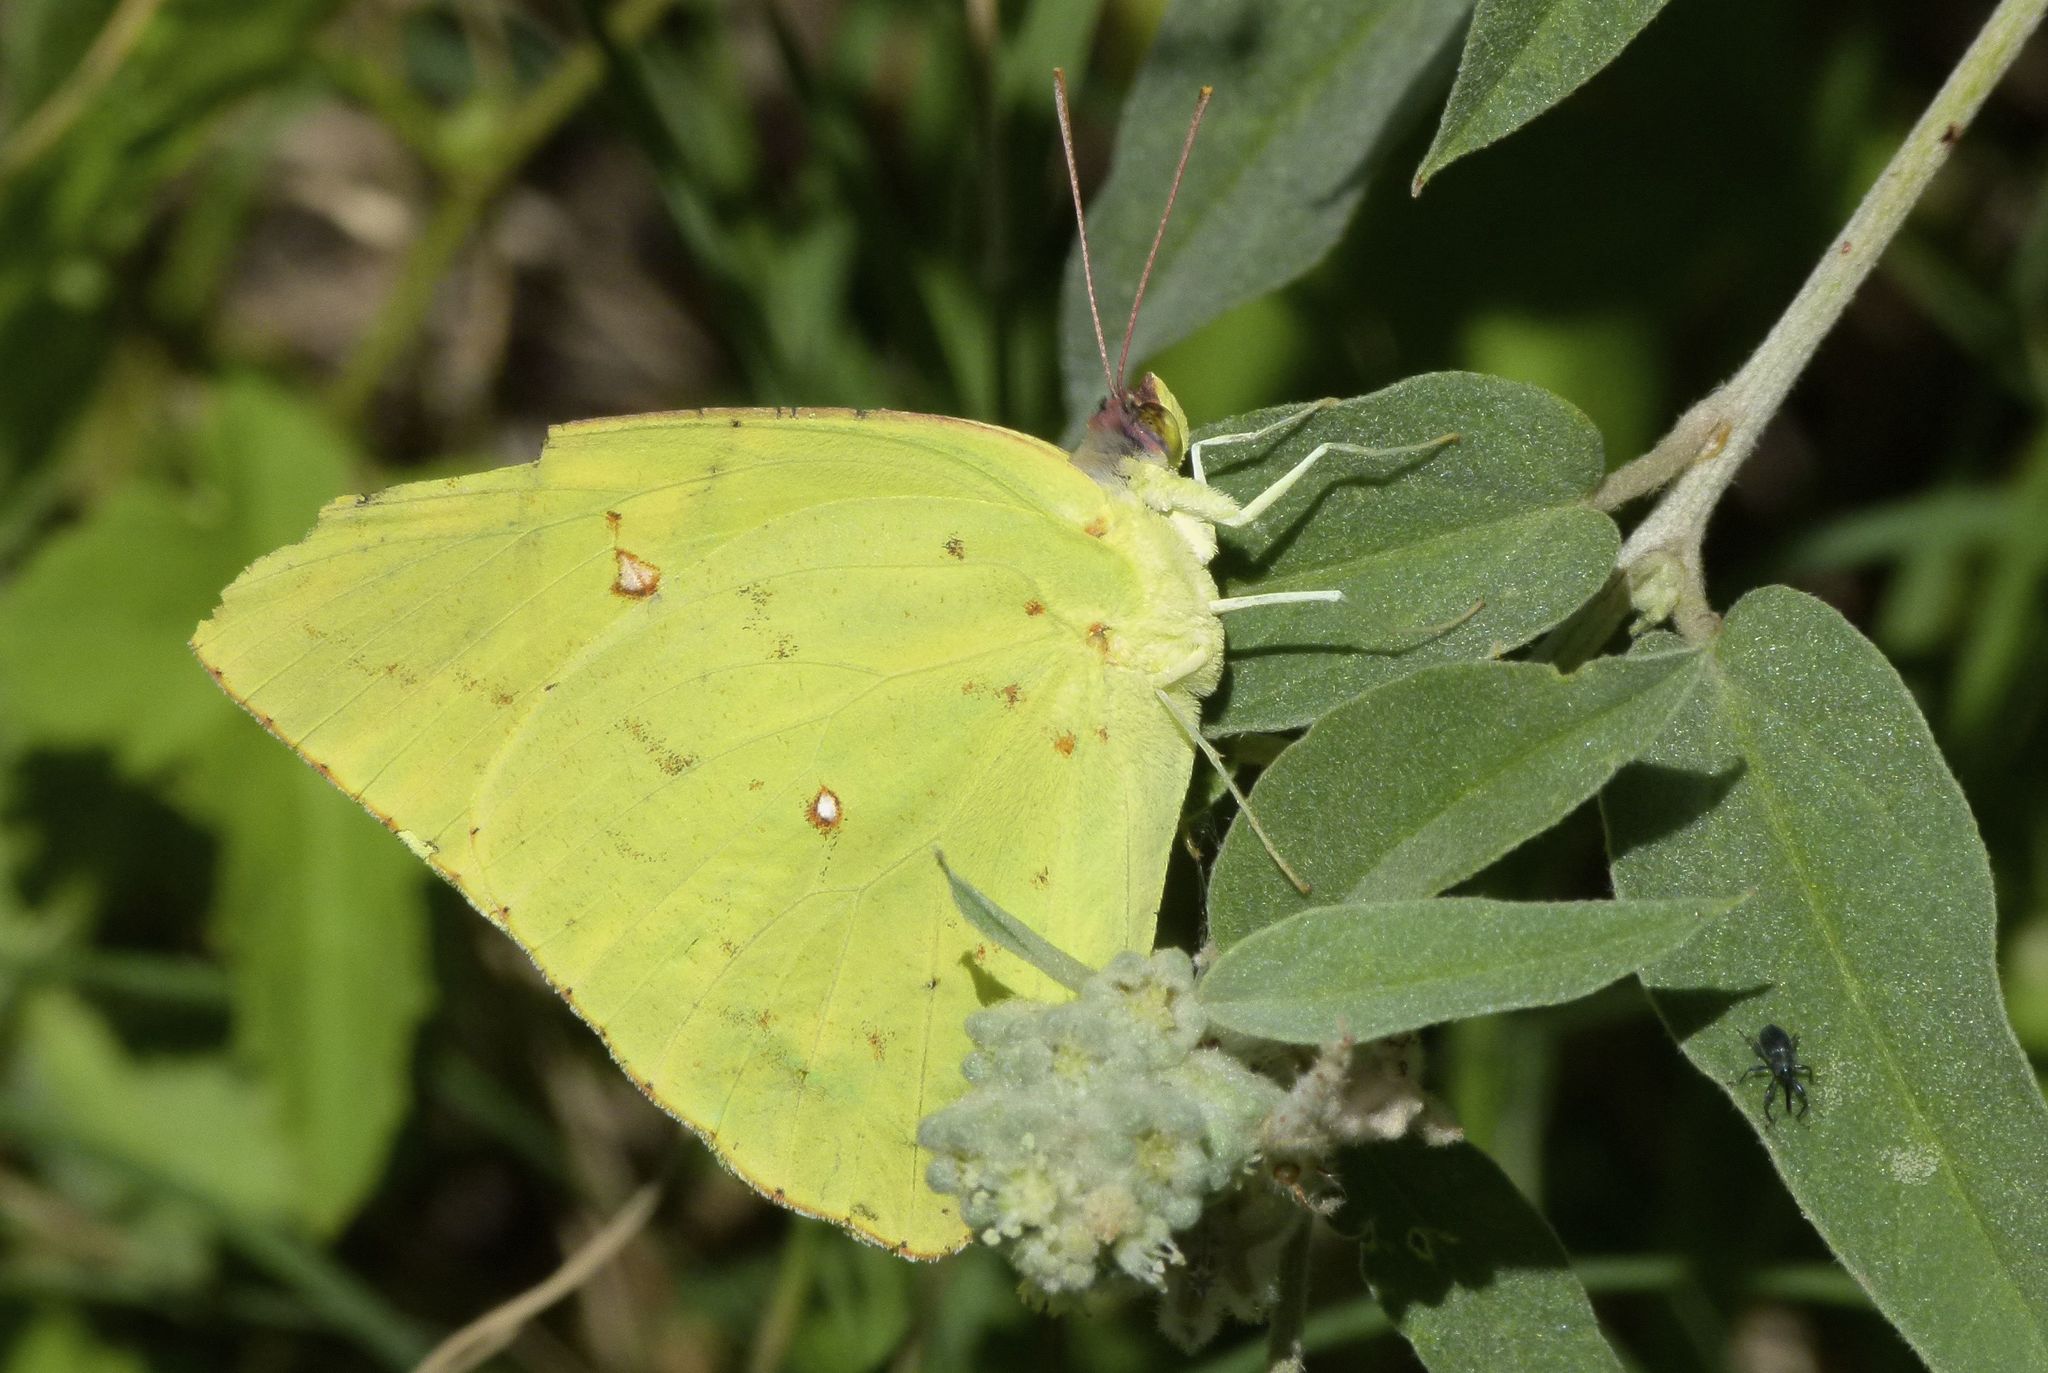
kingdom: Animalia
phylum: Arthropoda
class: Insecta
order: Lepidoptera
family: Pieridae
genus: Phoebis
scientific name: Phoebis sennae
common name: Cloudless sulphur
